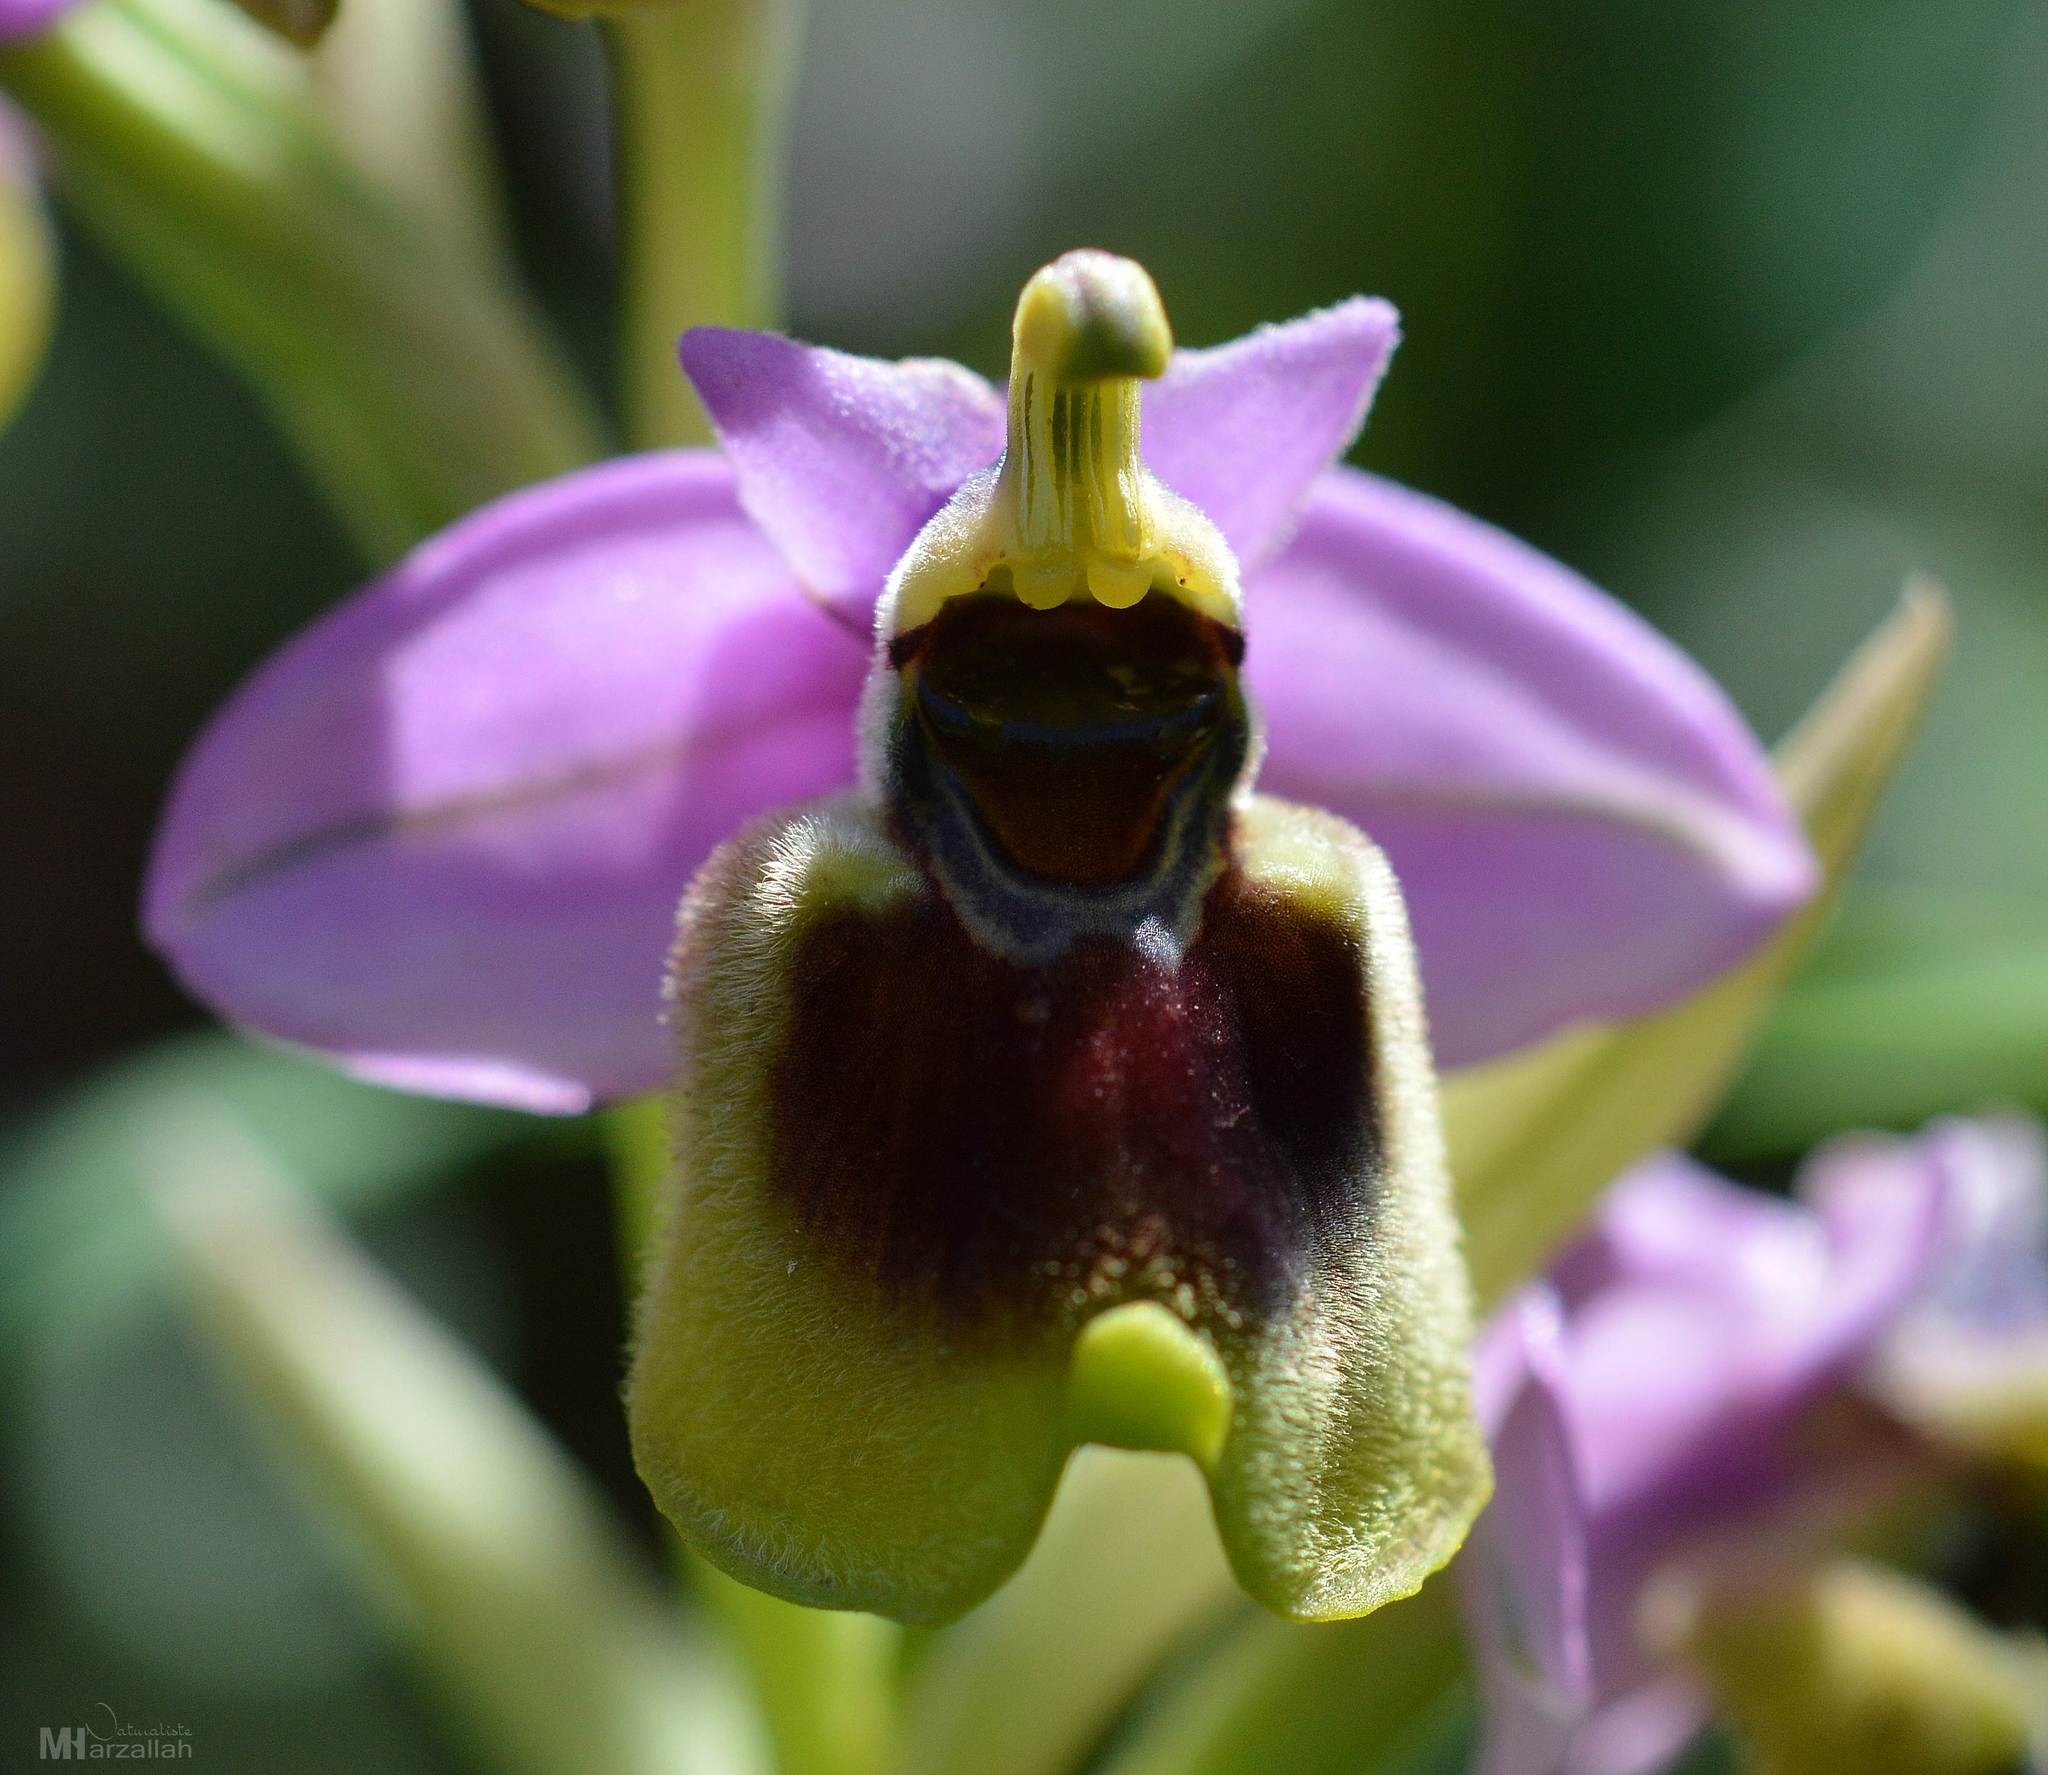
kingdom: Plantae
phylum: Tracheophyta
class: Liliopsida
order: Asparagales
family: Orchidaceae
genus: Ophrys
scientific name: Ophrys tenthredinifera
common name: Sawfly orchid
